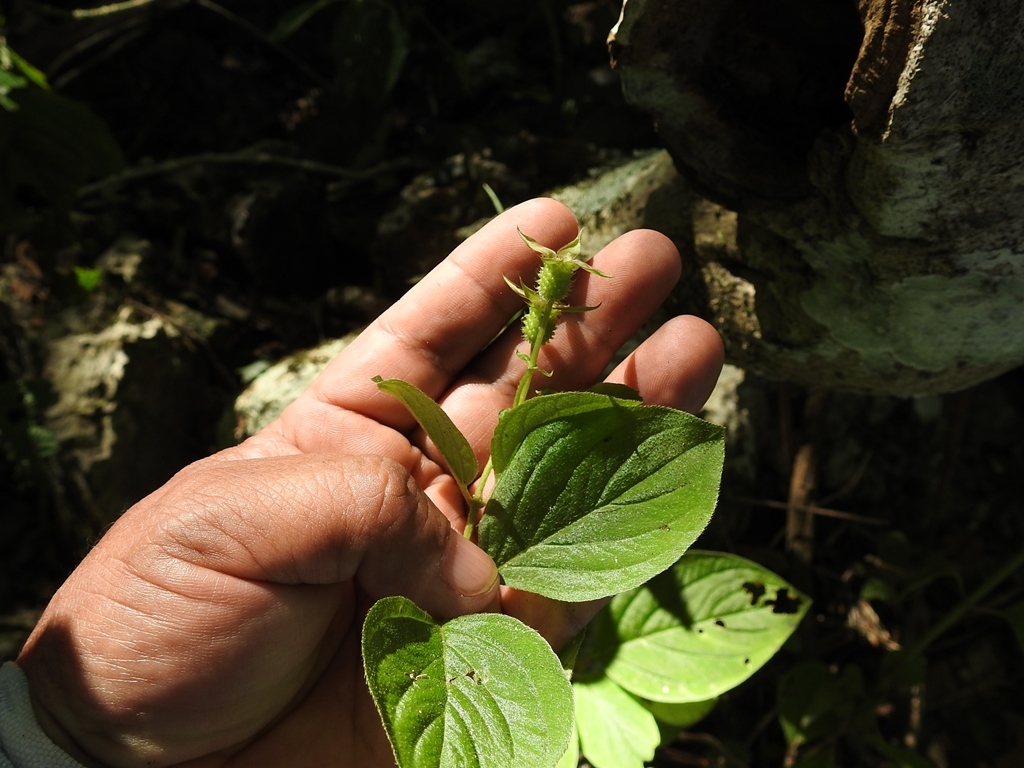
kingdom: Plantae
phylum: Tracheophyta
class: Magnoliopsida
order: Myrtales
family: Melastomataceae
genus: Heterocentron
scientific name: Heterocentron muricatum
